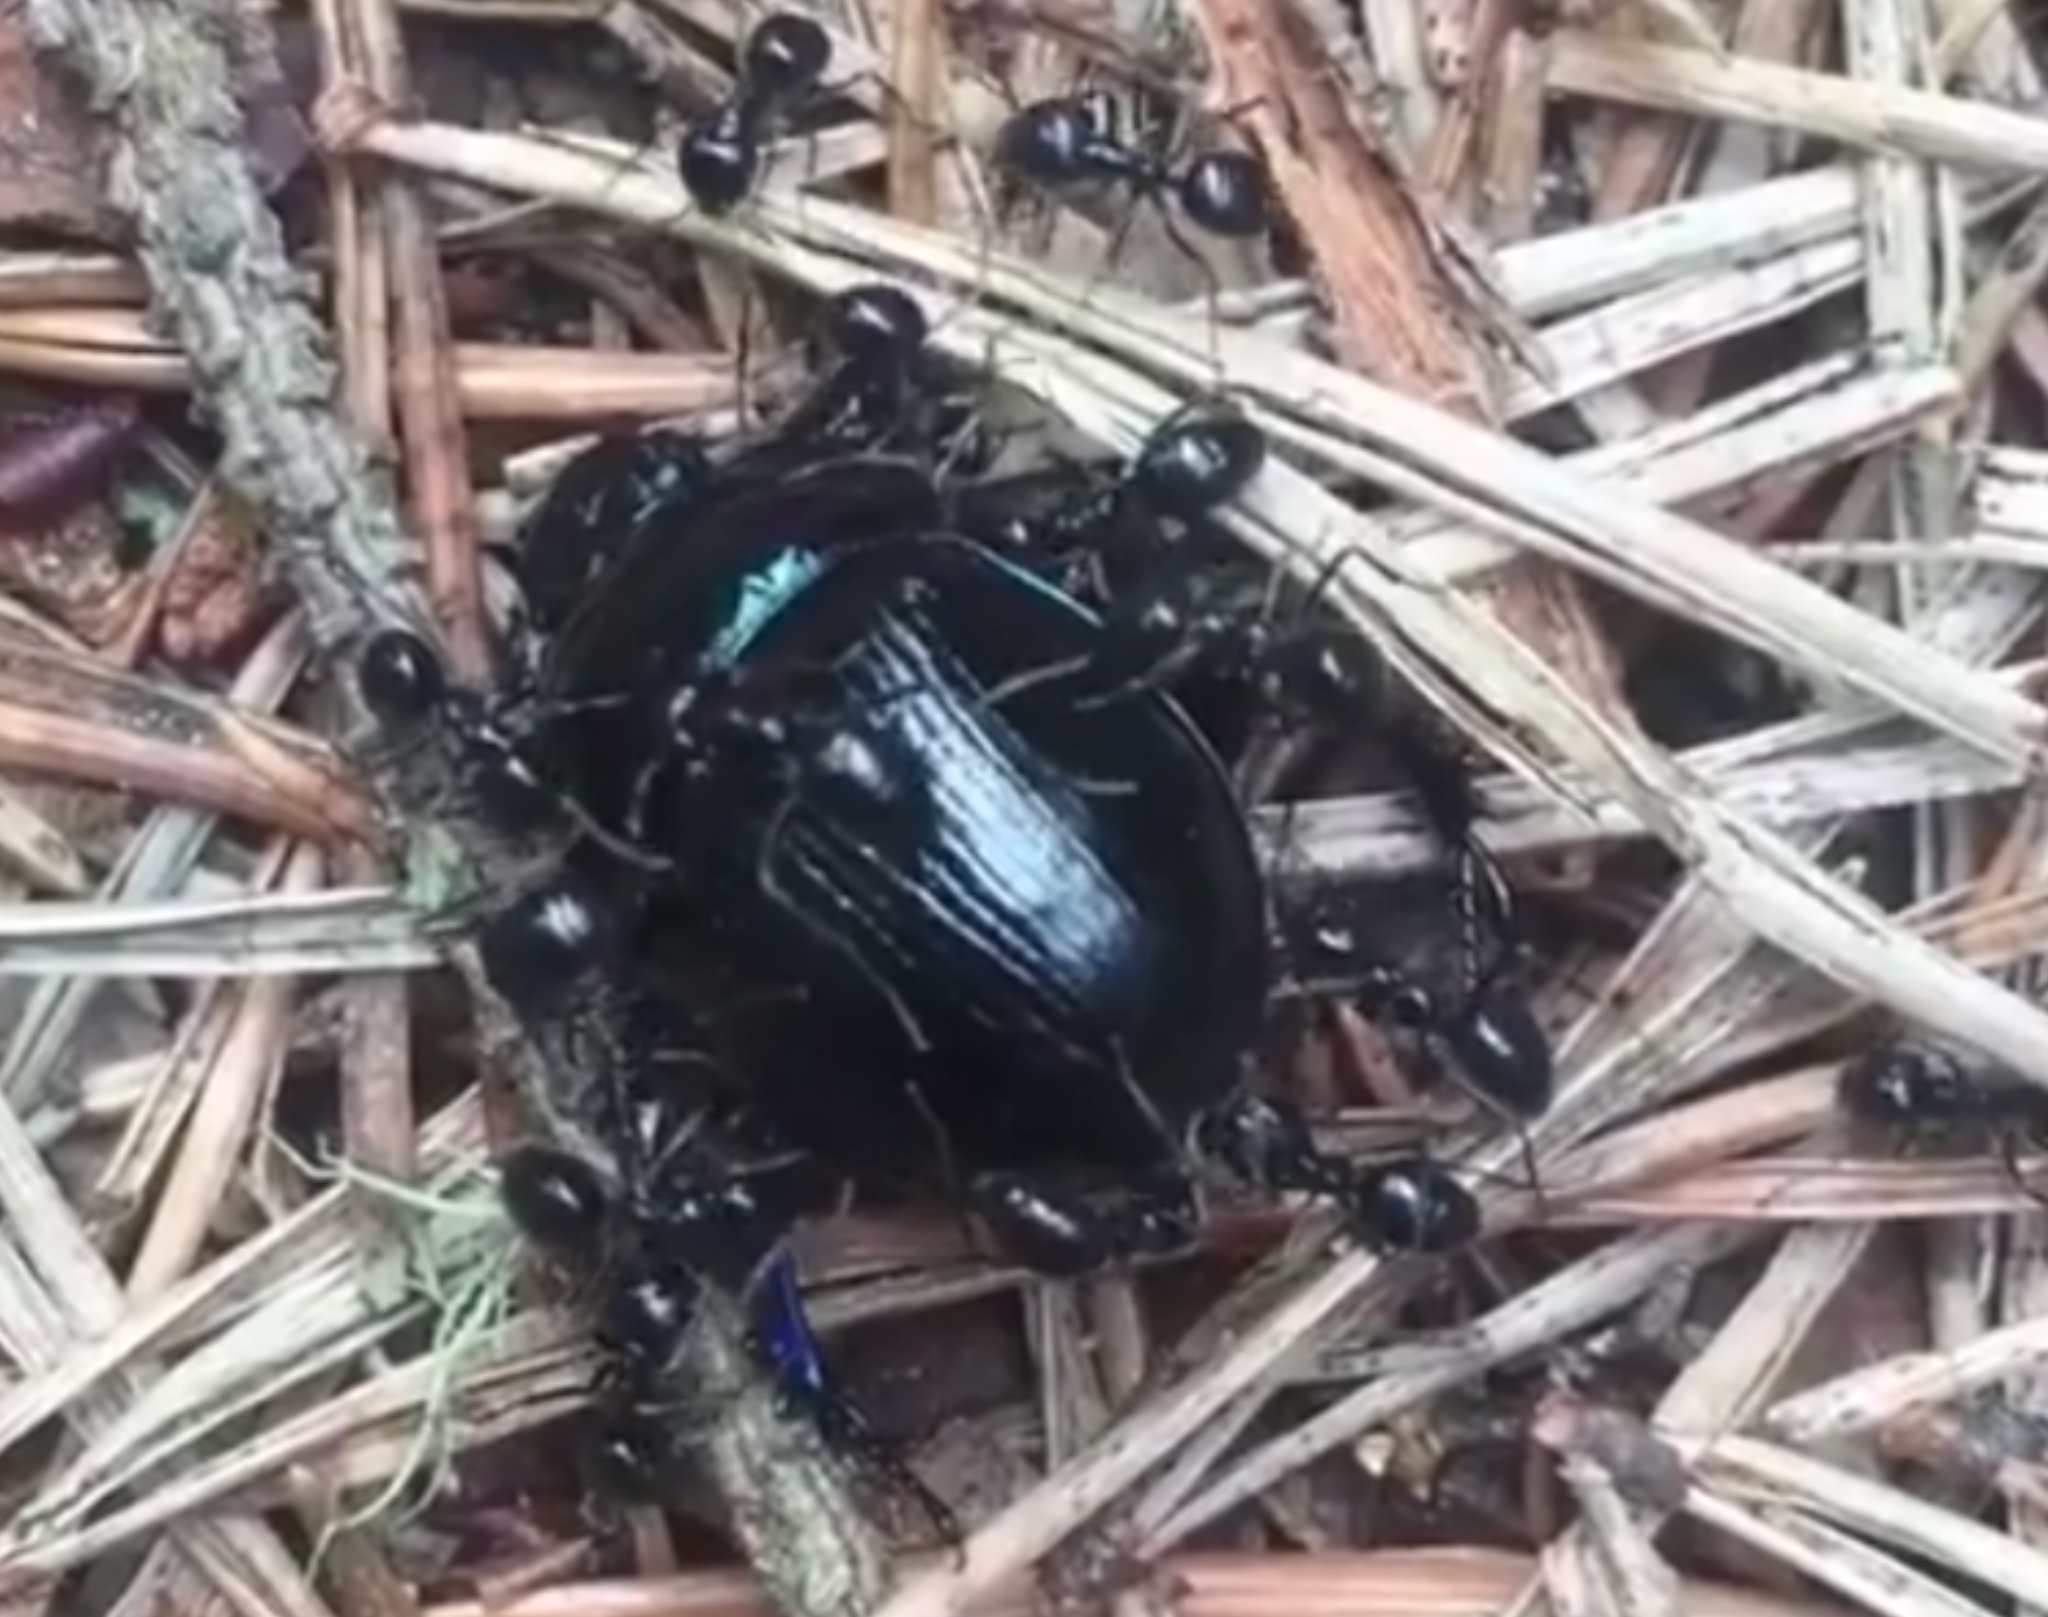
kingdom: Animalia
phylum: Arthropoda
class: Insecta
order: Hymenoptera
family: Formicidae
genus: Lasius
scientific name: Lasius fuliginosus
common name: Jet ant
